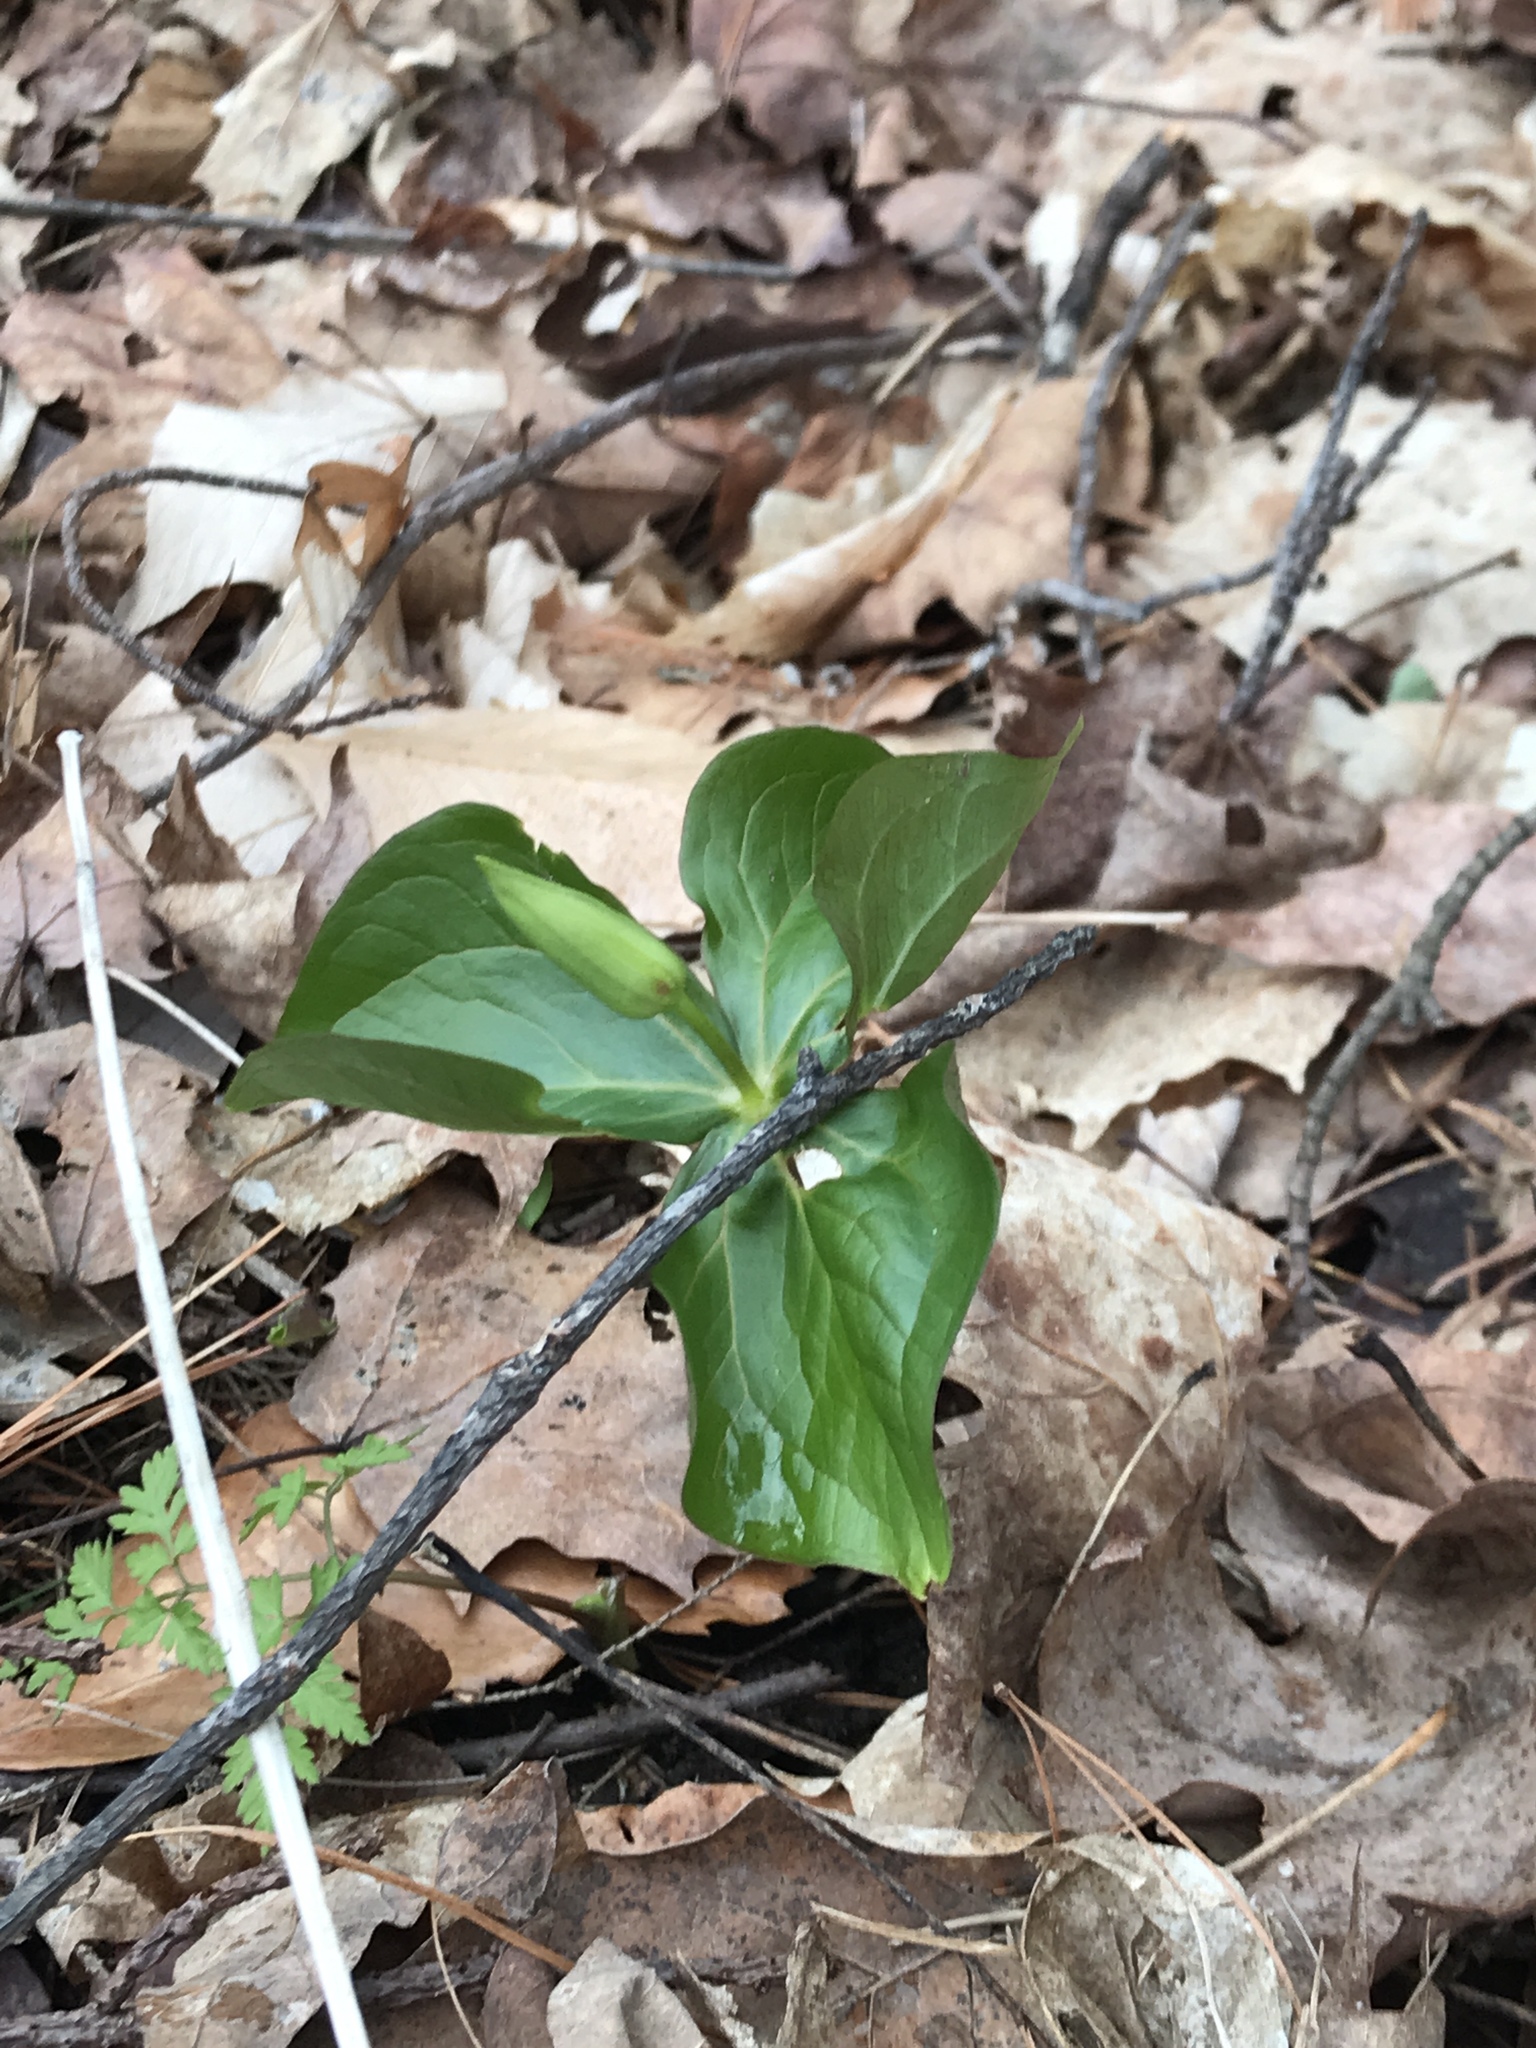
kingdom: Plantae
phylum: Tracheophyta
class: Liliopsida
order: Liliales
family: Melanthiaceae
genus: Trillium
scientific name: Trillium erectum
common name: Purple trillium
